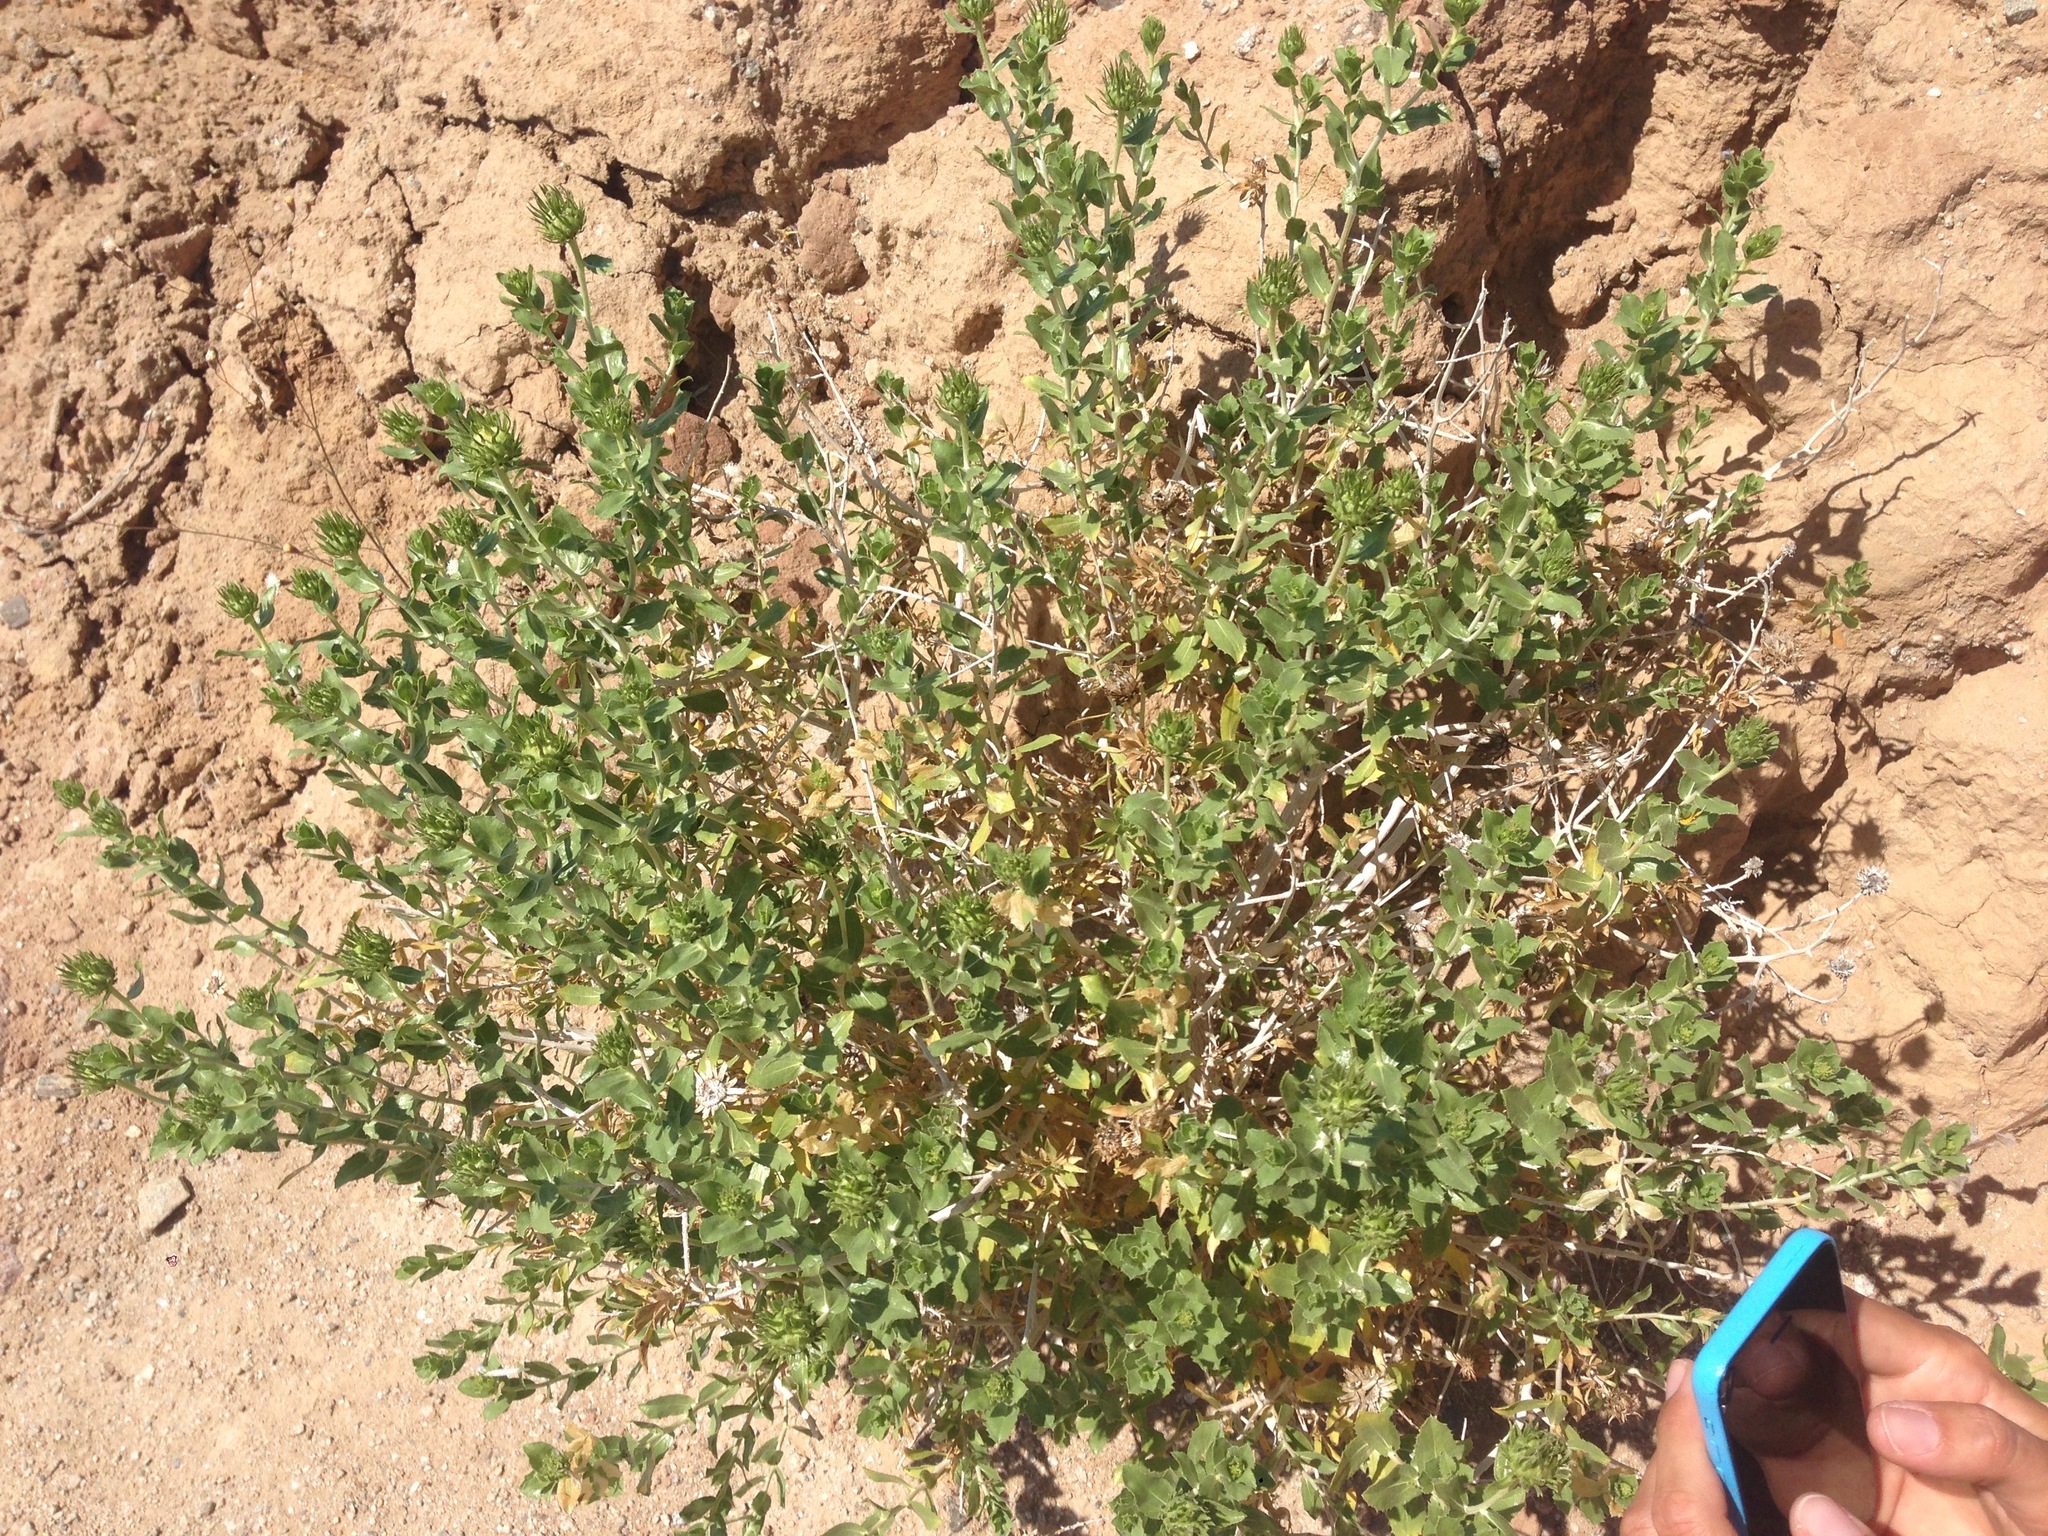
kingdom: Plantae
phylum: Tracheophyta
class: Magnoliopsida
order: Asterales
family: Asteraceae
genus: Xylorhiza
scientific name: Xylorhiza cognata
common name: Mecca woody-aster
